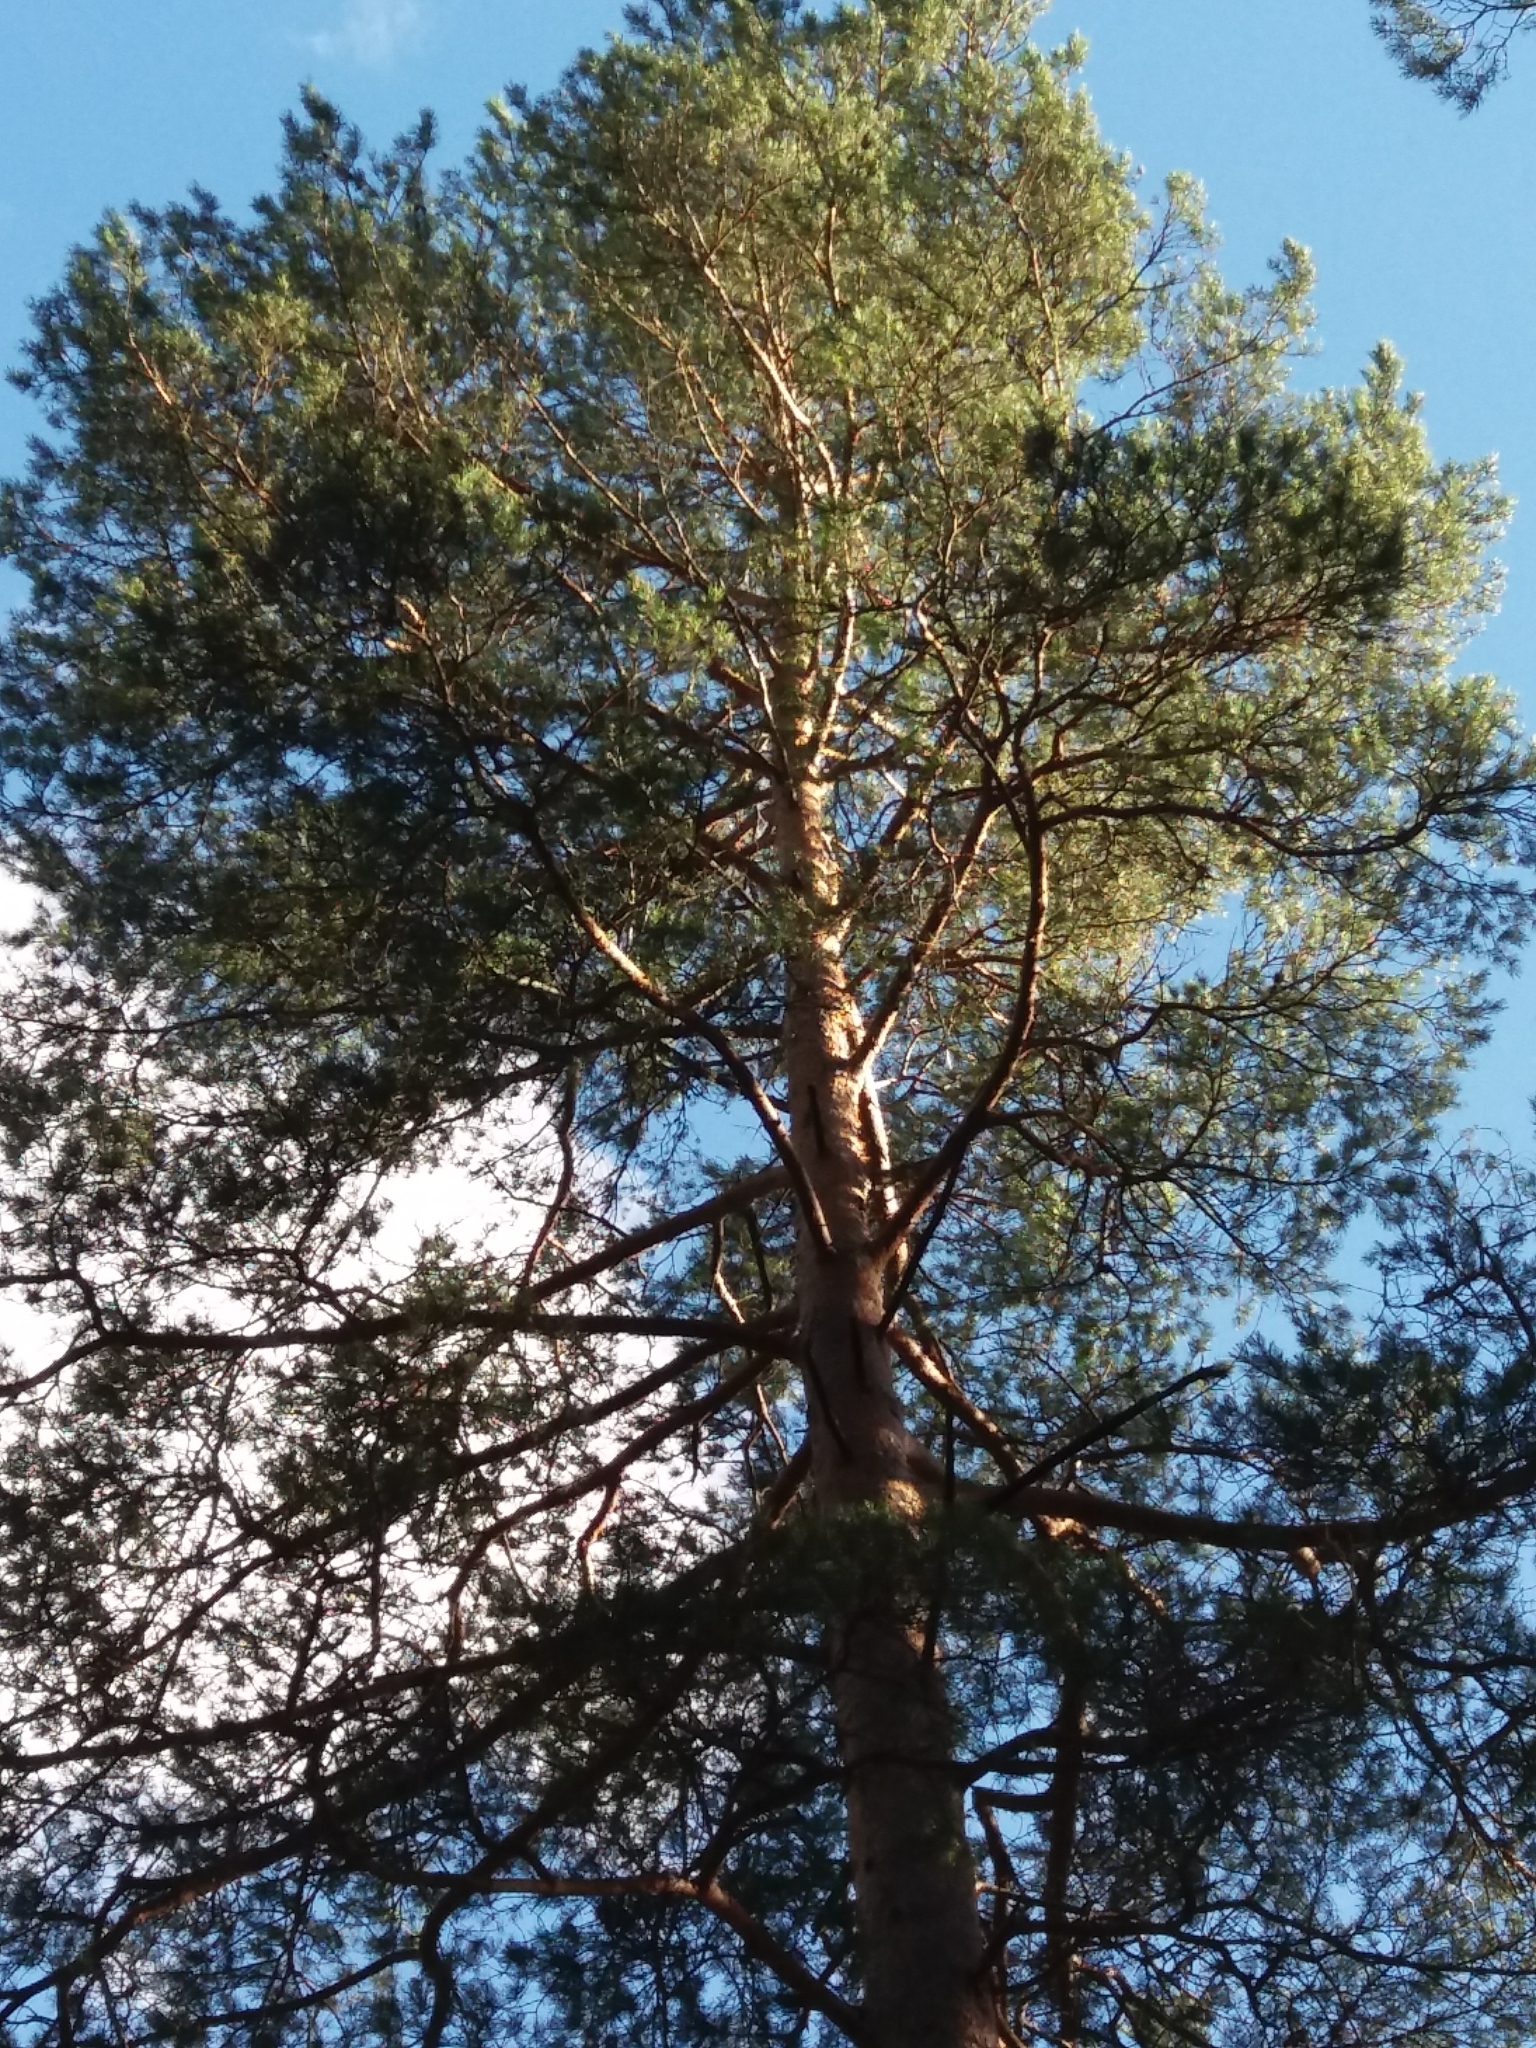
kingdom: Plantae
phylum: Tracheophyta
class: Pinopsida
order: Pinales
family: Pinaceae
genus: Pinus
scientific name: Pinus sylvestris
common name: Scots pine
